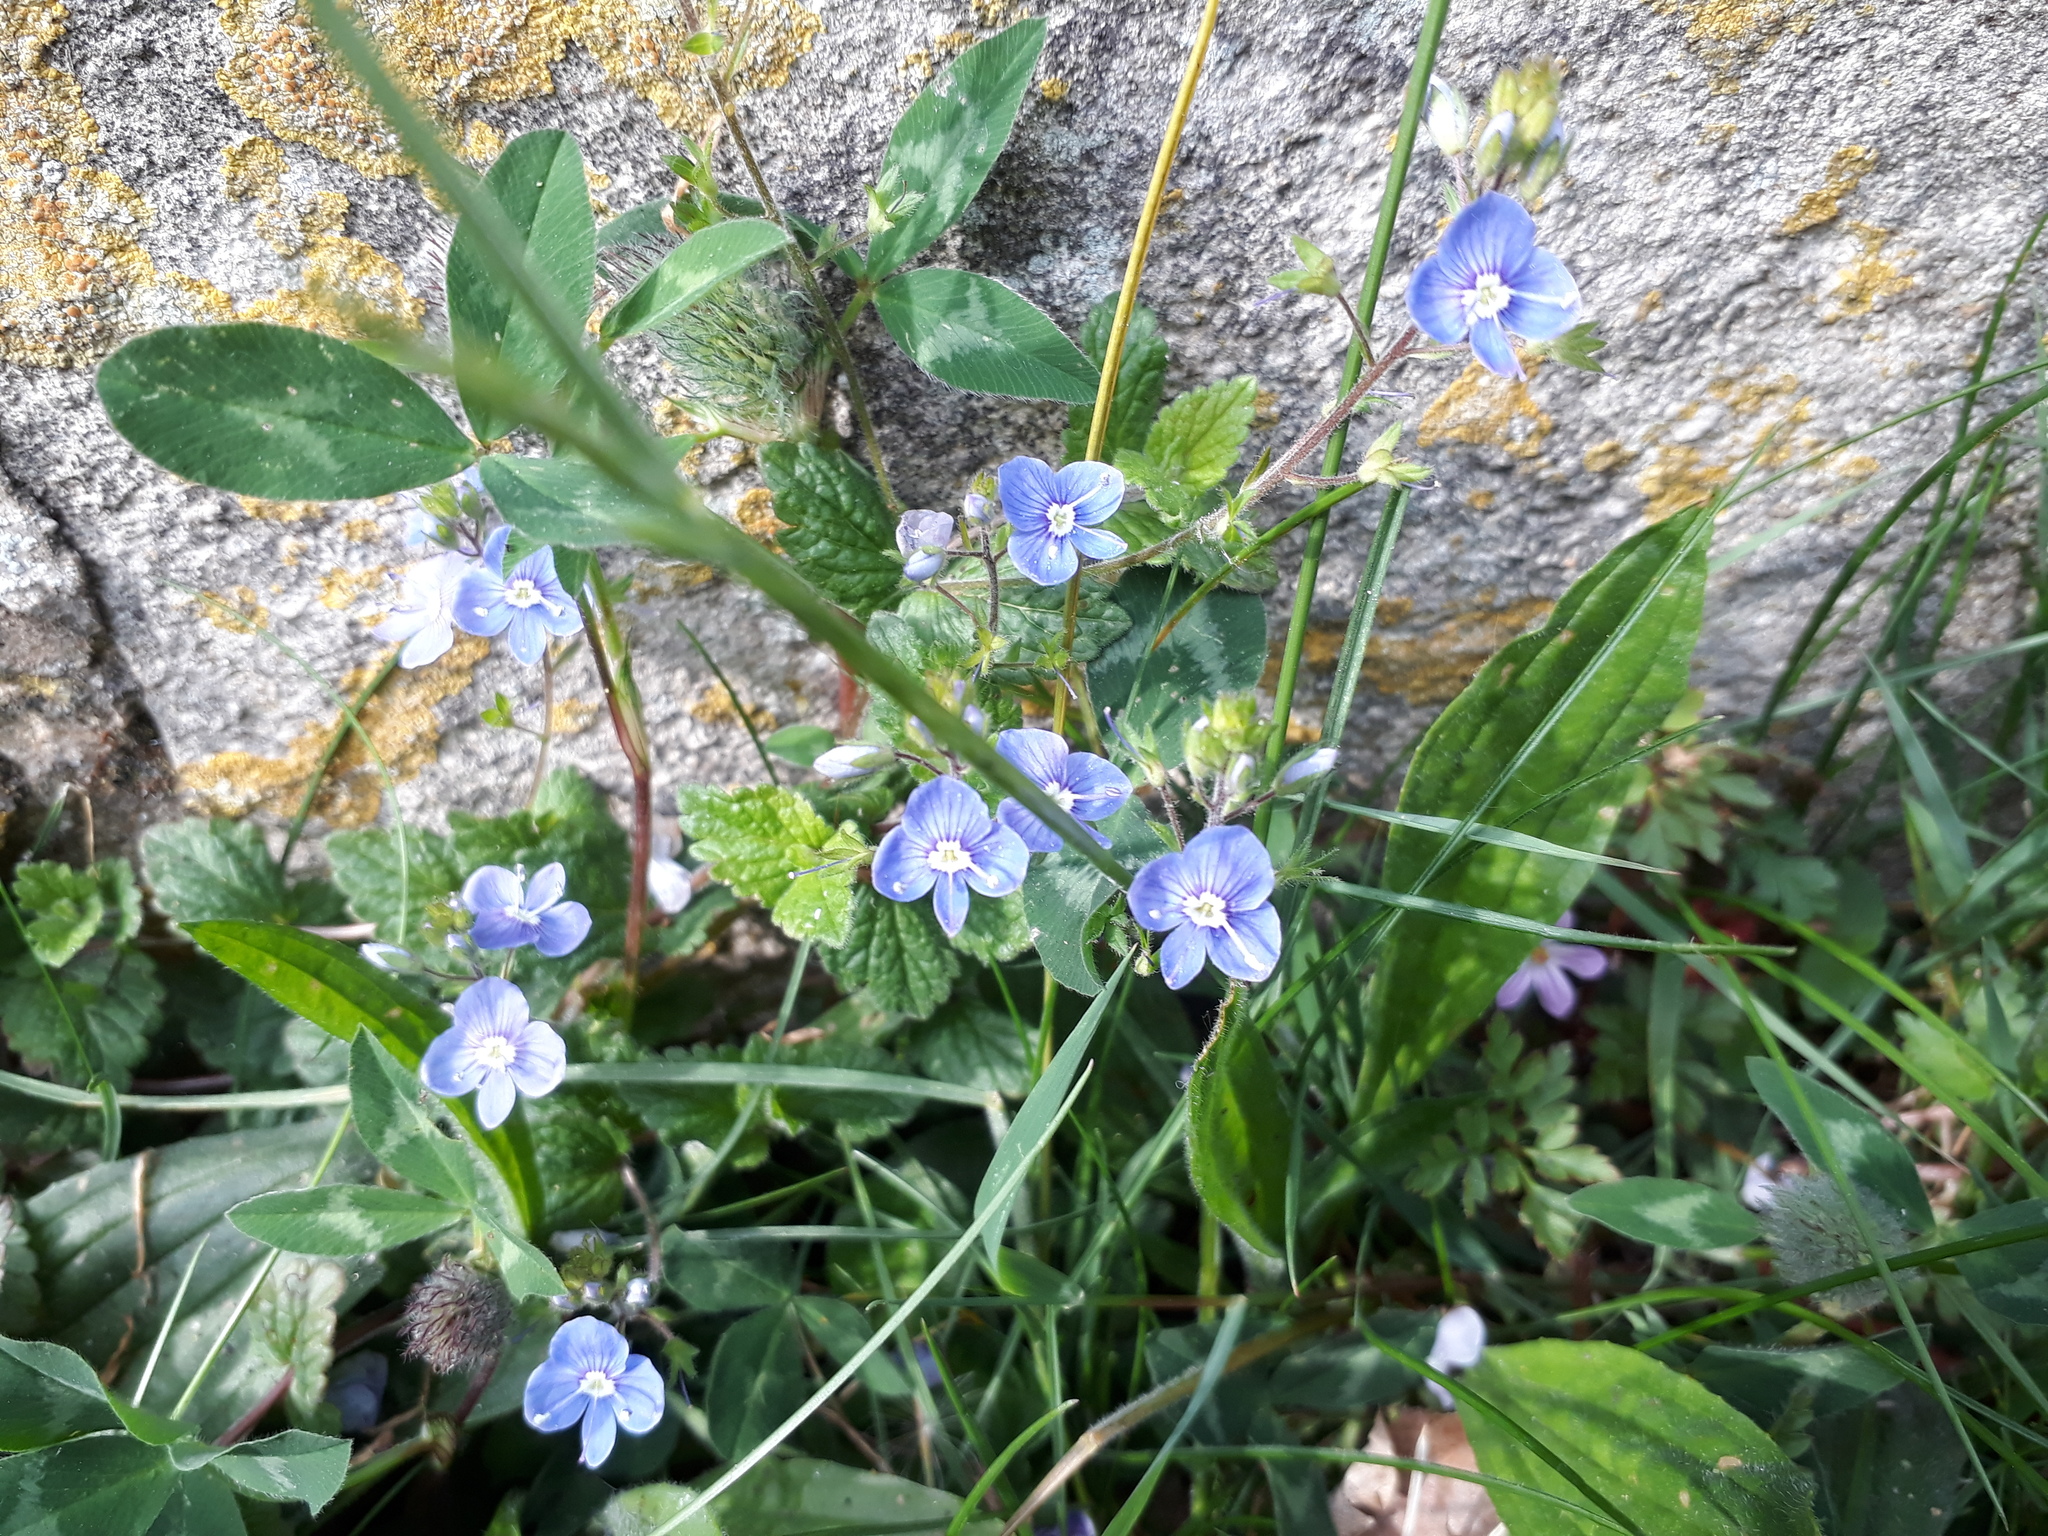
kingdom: Plantae
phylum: Tracheophyta
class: Magnoliopsida
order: Lamiales
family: Plantaginaceae
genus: Veronica
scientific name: Veronica chamaedrys
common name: Germander speedwell
